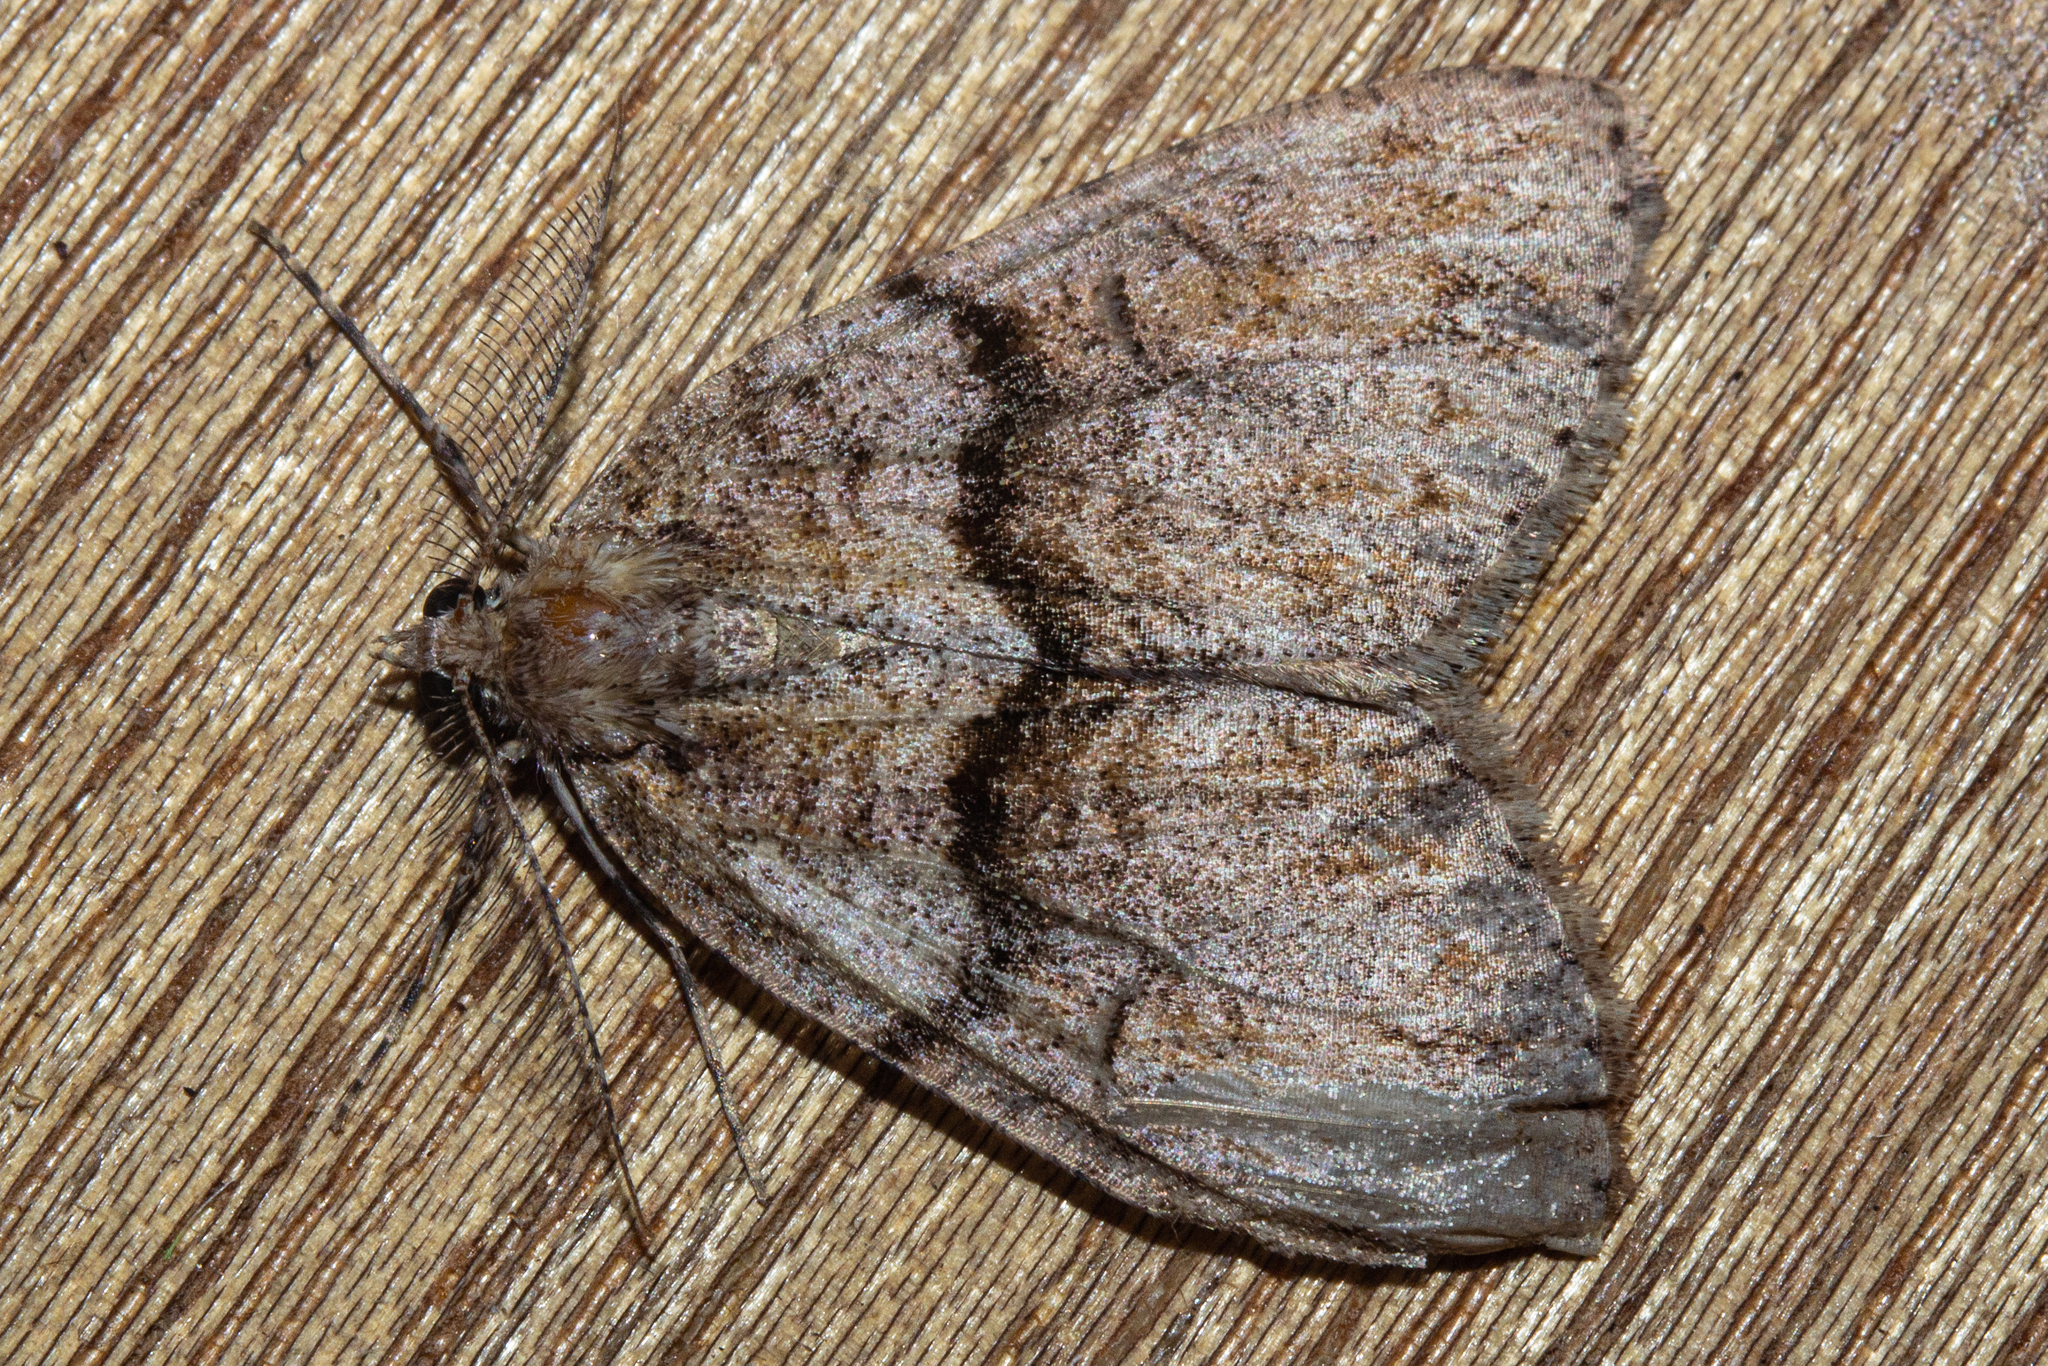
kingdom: Animalia
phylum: Arthropoda
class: Insecta
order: Lepidoptera
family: Geometridae
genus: Pseudocoremia
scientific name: Pseudocoremia suavis
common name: Common forest looper
